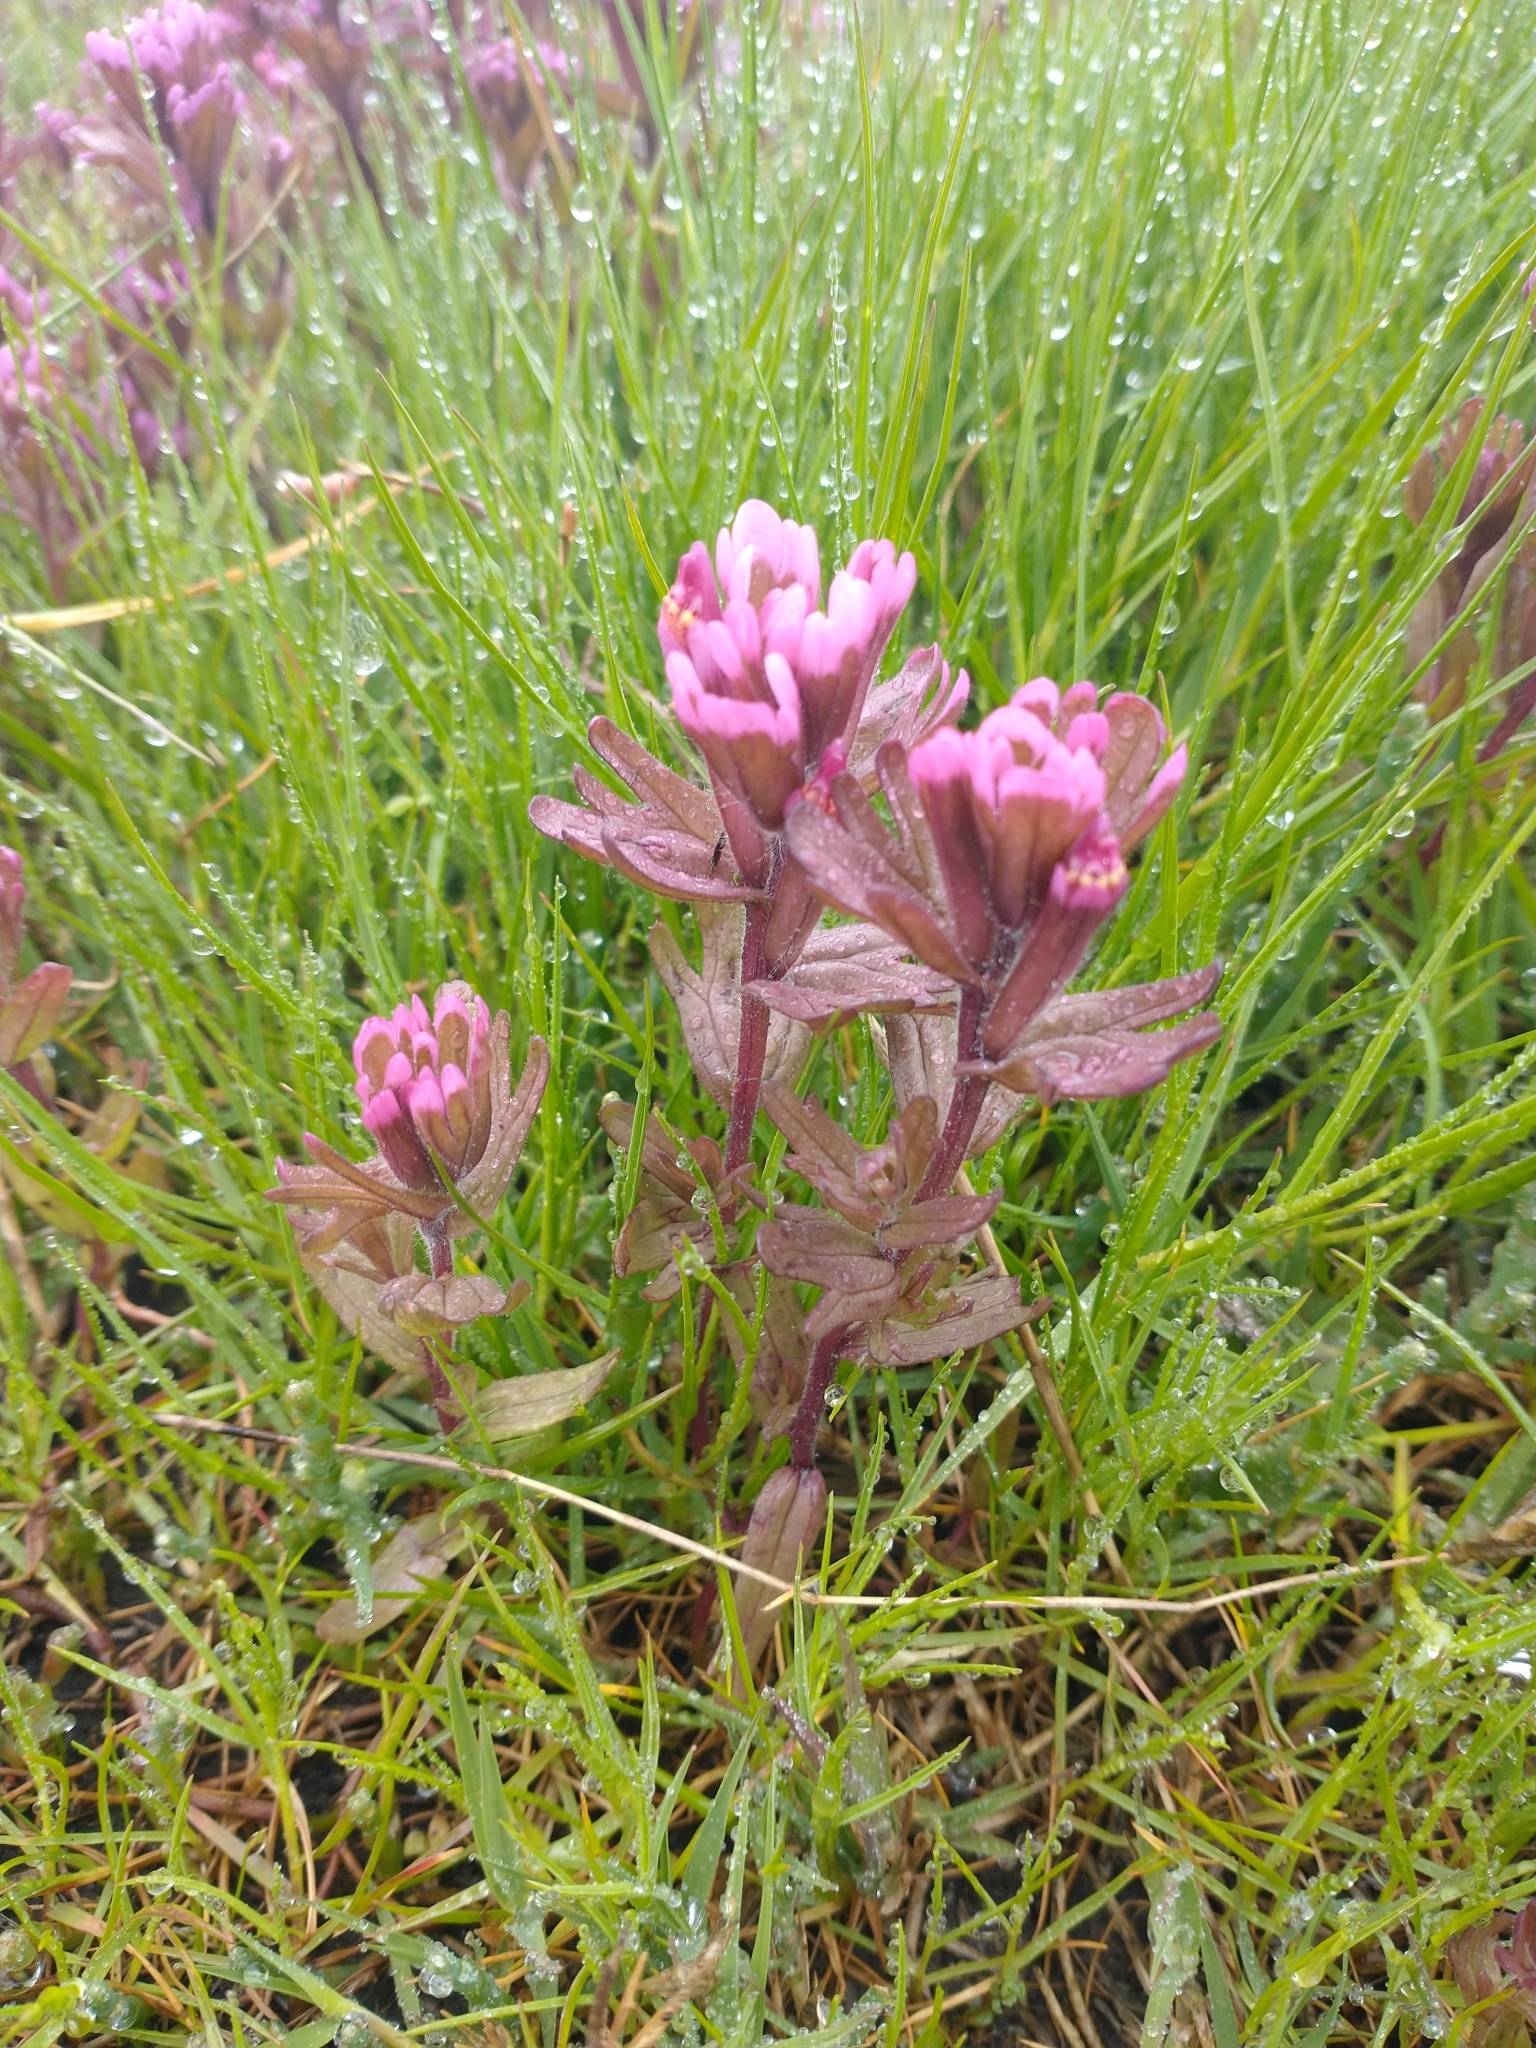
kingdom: Plantae
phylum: Tracheophyta
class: Magnoliopsida
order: Lamiales
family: Orobanchaceae
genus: Castilleja
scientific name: Castilleja ambigua
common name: Johnny-nip
